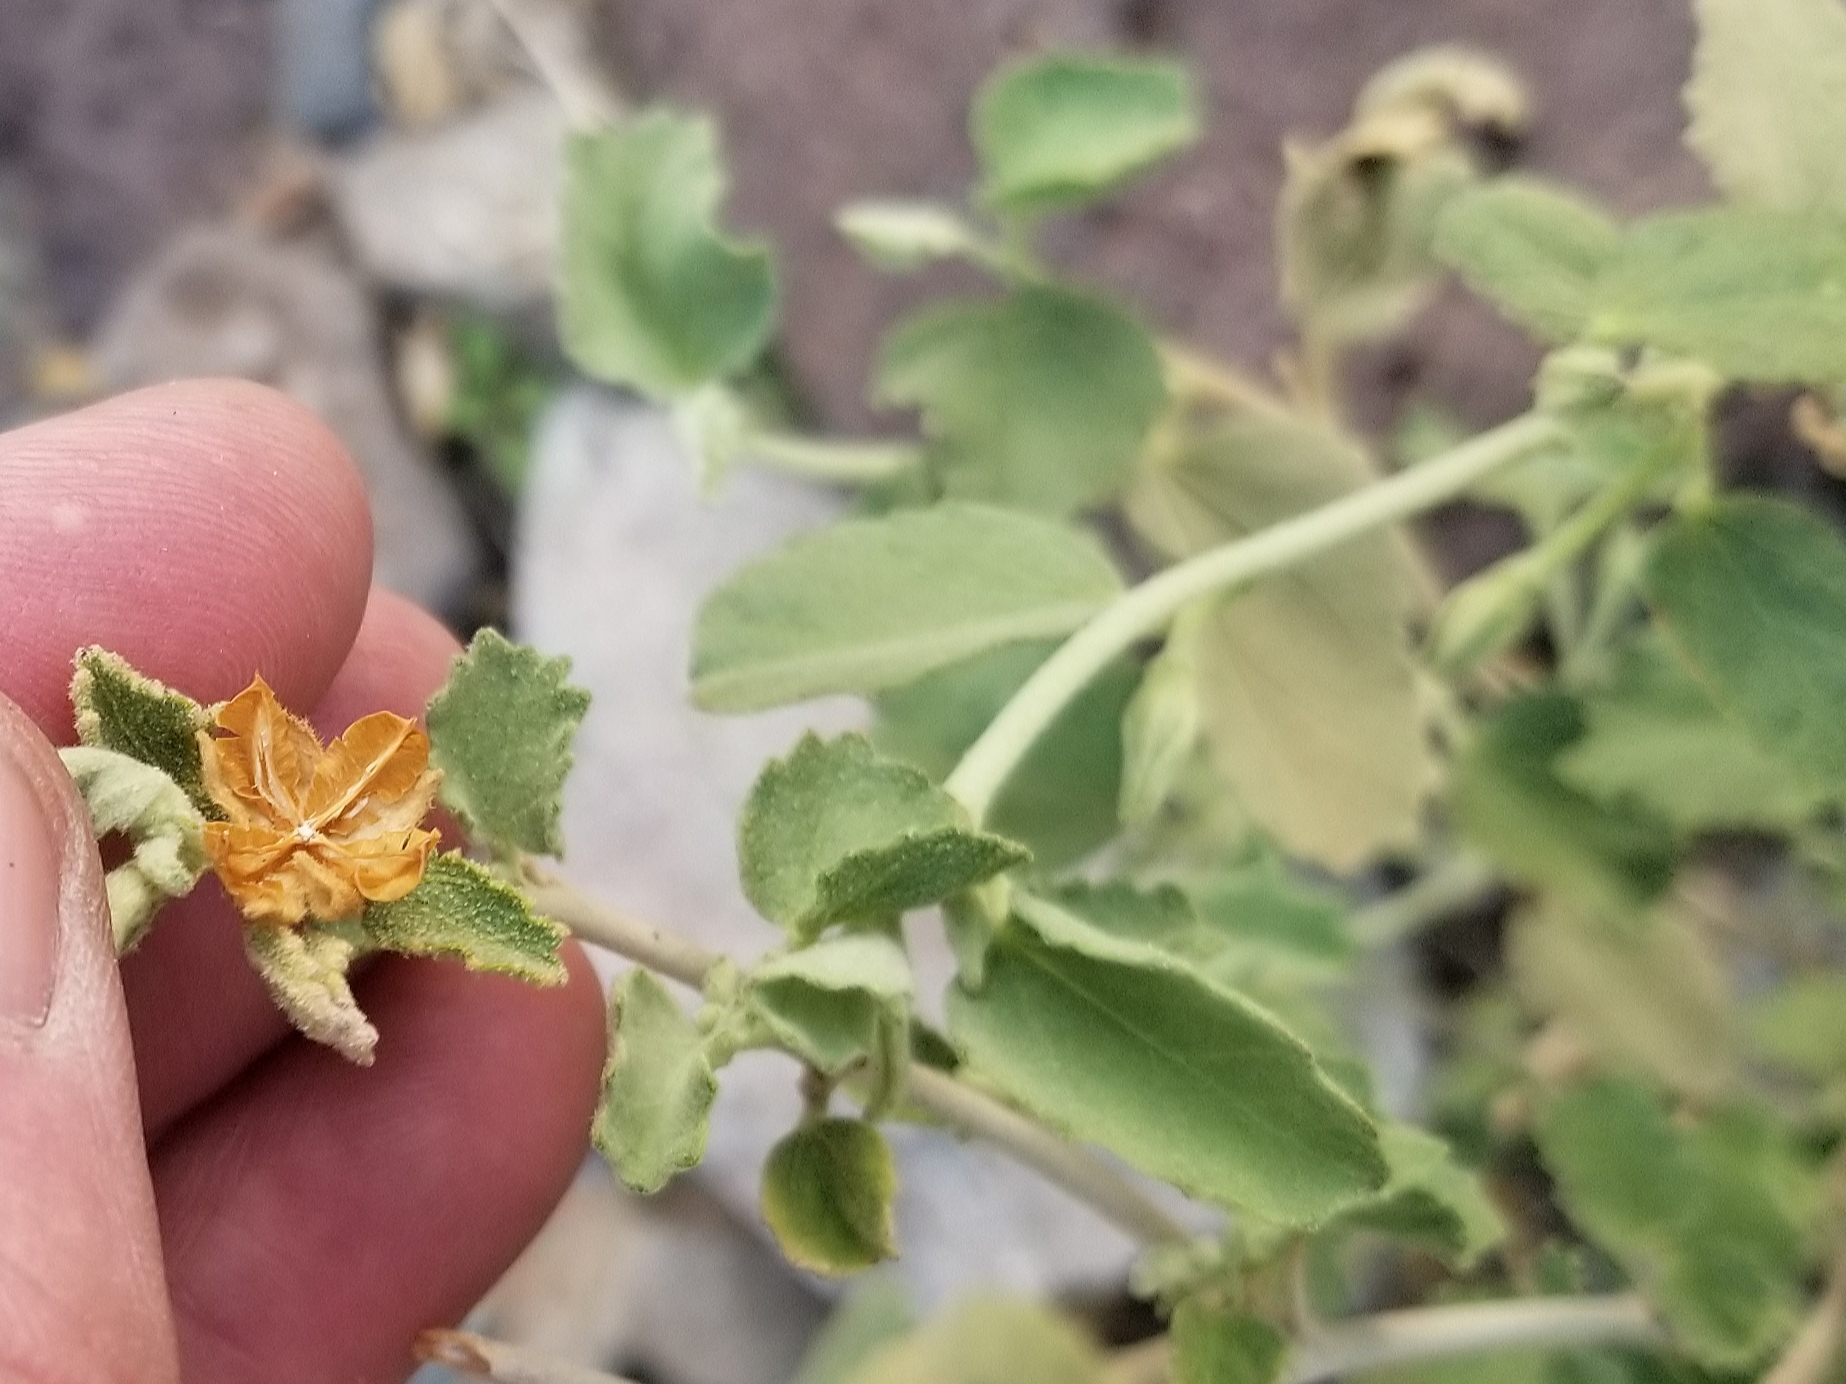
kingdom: Plantae
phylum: Tracheophyta
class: Magnoliopsida
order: Malvales
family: Malvaceae
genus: Hibiscus
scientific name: Hibiscus denudatus
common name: Paleface
